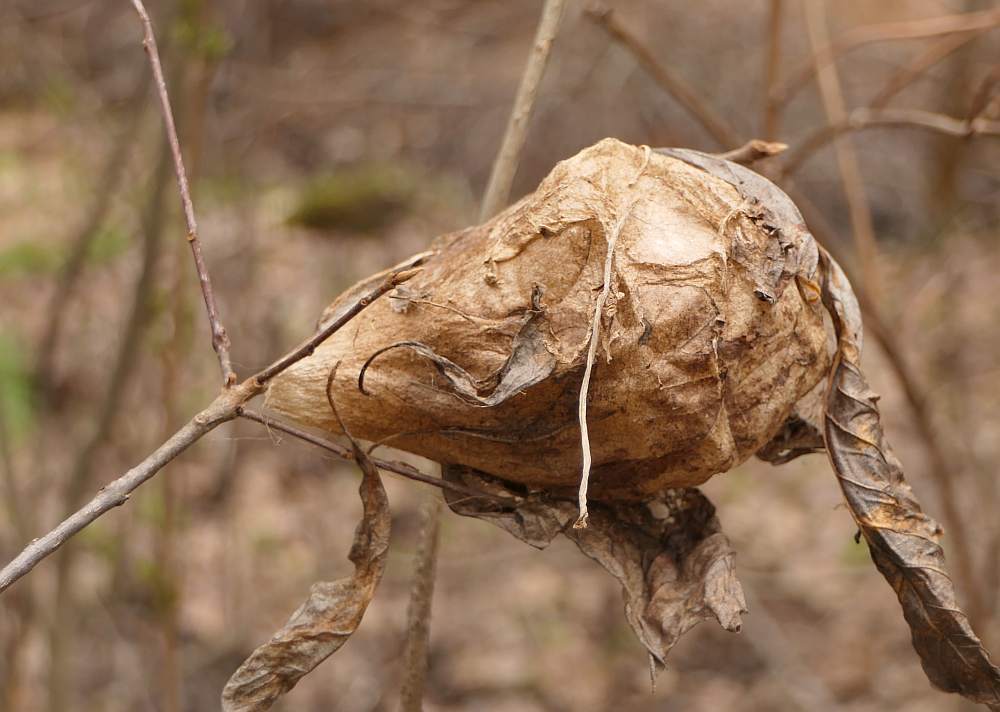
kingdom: Animalia
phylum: Arthropoda
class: Insecta
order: Lepidoptera
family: Saturniidae
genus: Hyalophora
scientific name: Hyalophora cecropia
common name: Cecropia silkmoth
